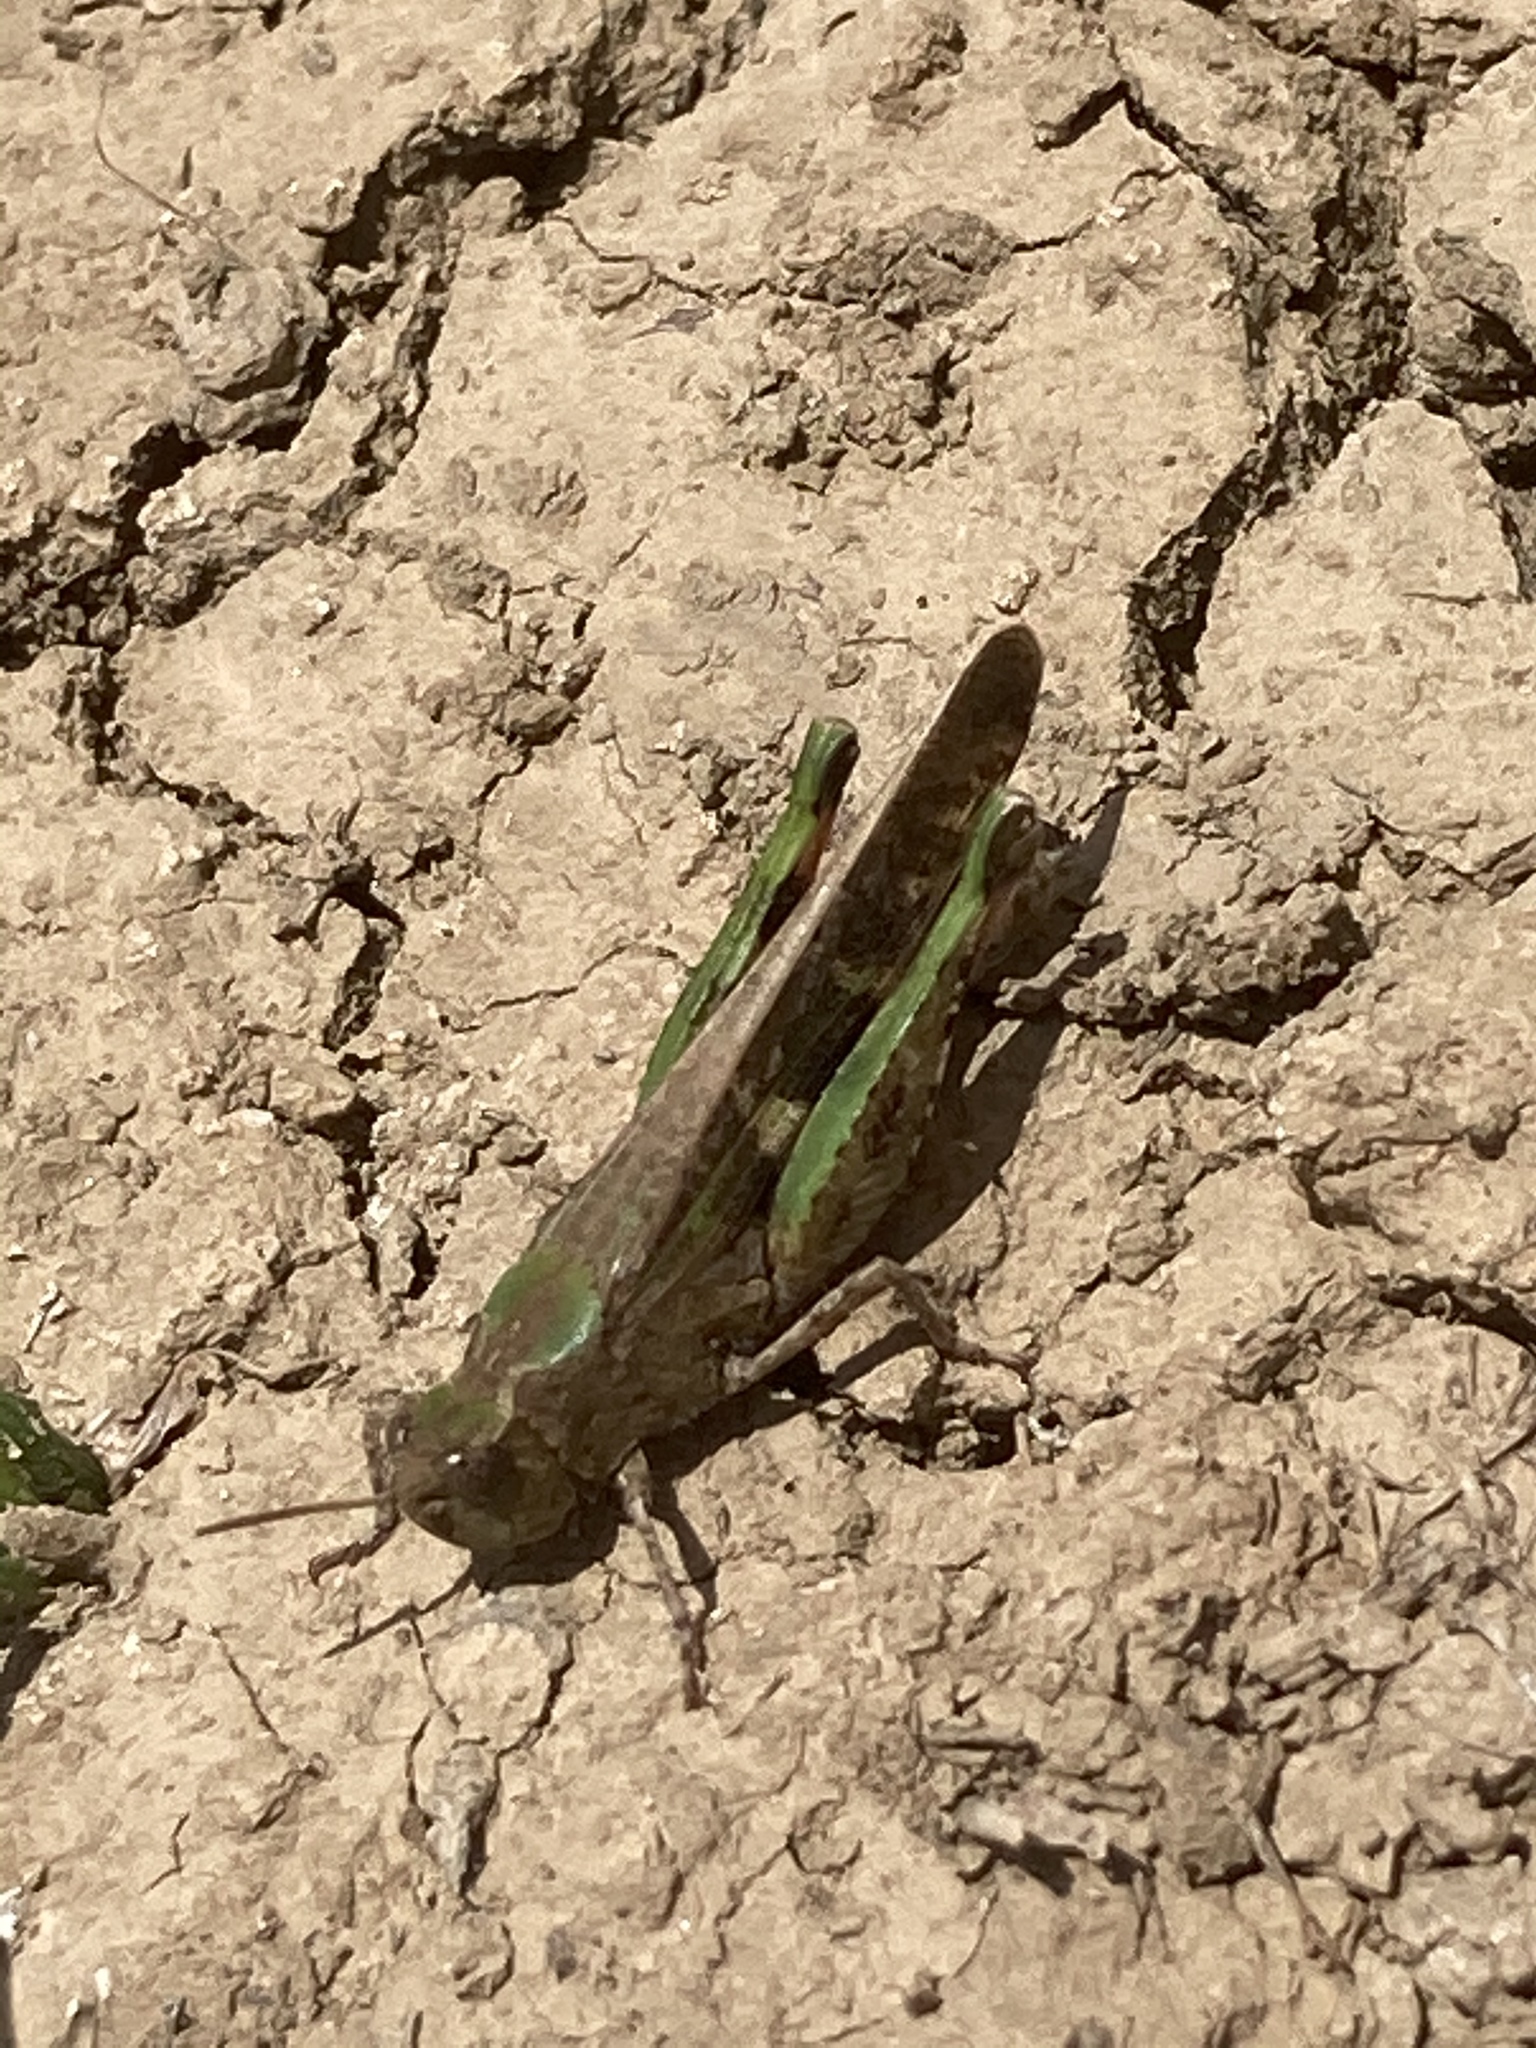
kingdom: Animalia
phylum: Arthropoda
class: Insecta
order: Orthoptera
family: Acrididae
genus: Aiolopus
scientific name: Aiolopus strepens
